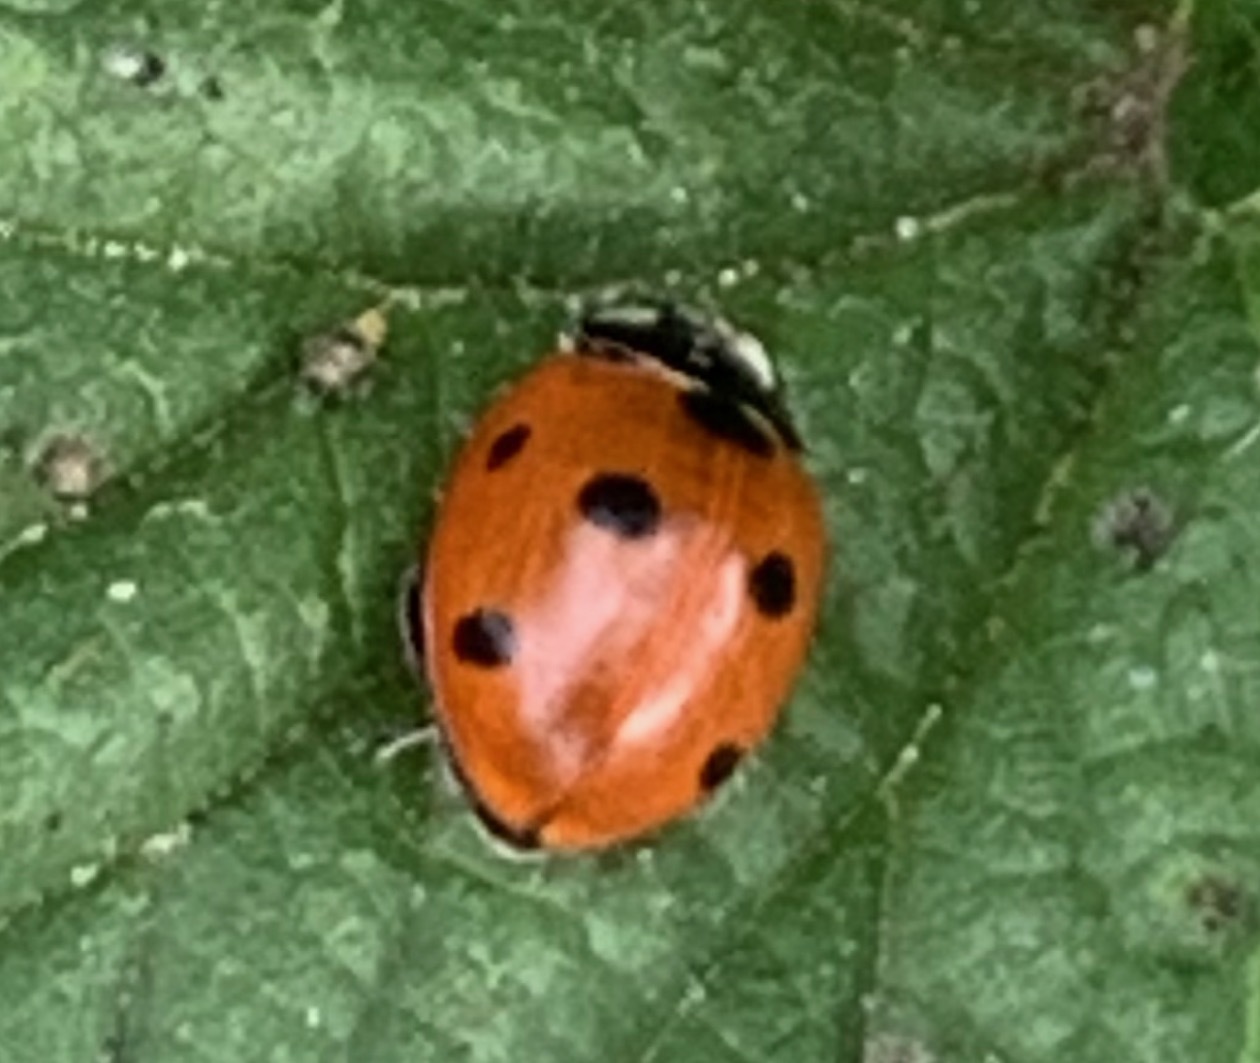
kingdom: Animalia
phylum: Arthropoda
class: Insecta
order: Coleoptera
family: Coccinellidae
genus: Coccinella
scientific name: Coccinella septempunctata
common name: Sevenspotted lady beetle
